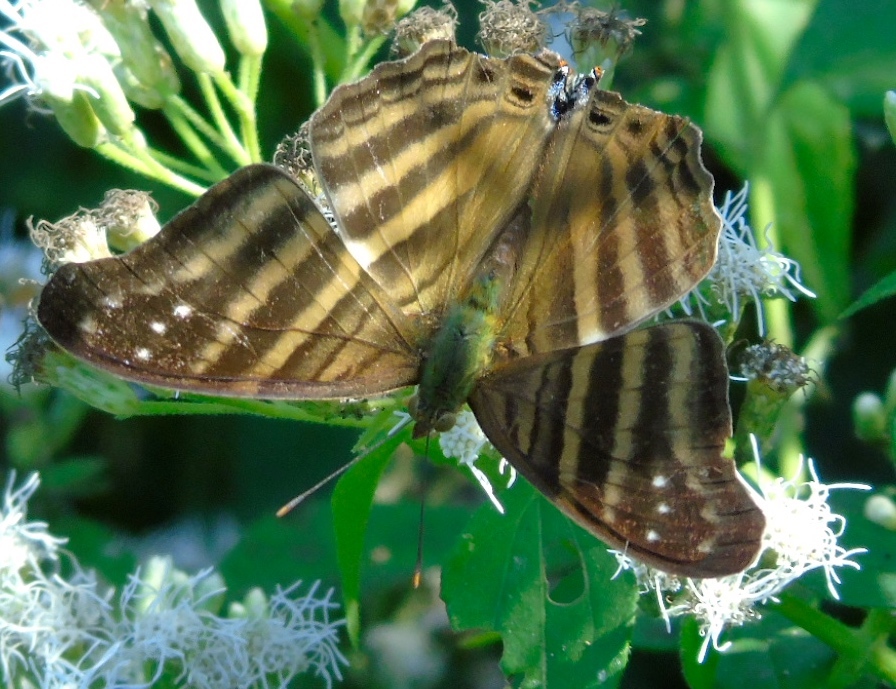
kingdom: Animalia
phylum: Arthropoda
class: Insecta
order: Lepidoptera
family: Nymphalidae
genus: Marpesia
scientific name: Marpesia chiron
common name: Many-banded daggerwing
